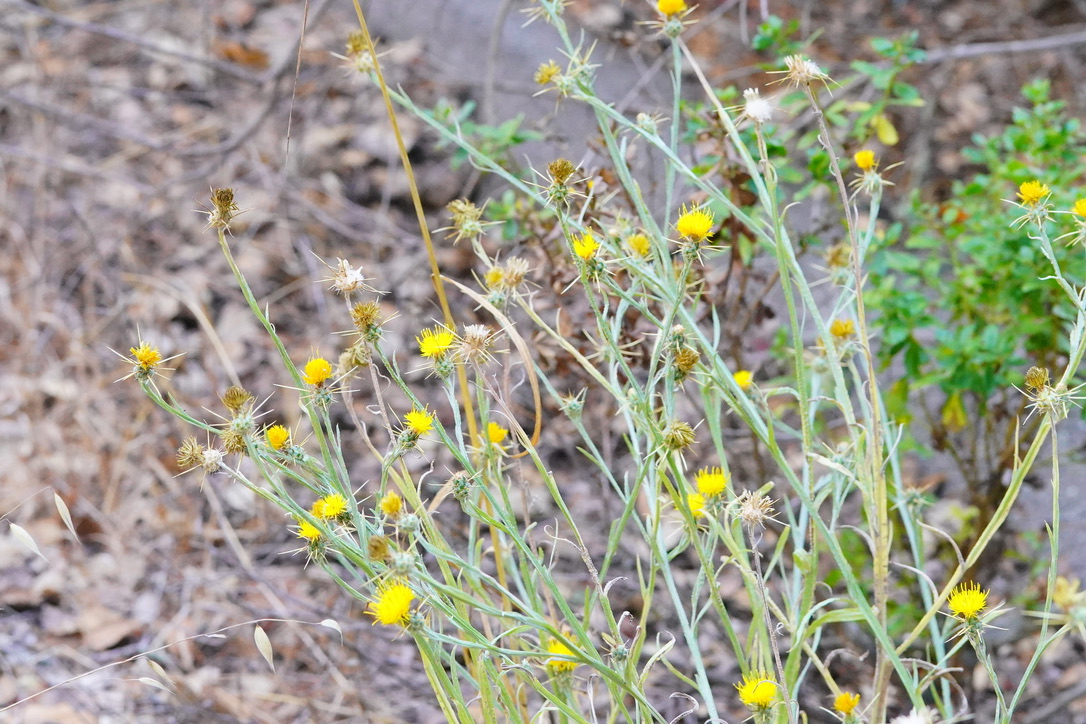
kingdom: Plantae
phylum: Tracheophyta
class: Magnoliopsida
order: Asterales
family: Asteraceae
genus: Centaurea
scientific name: Centaurea solstitialis
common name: Yellow star-thistle
